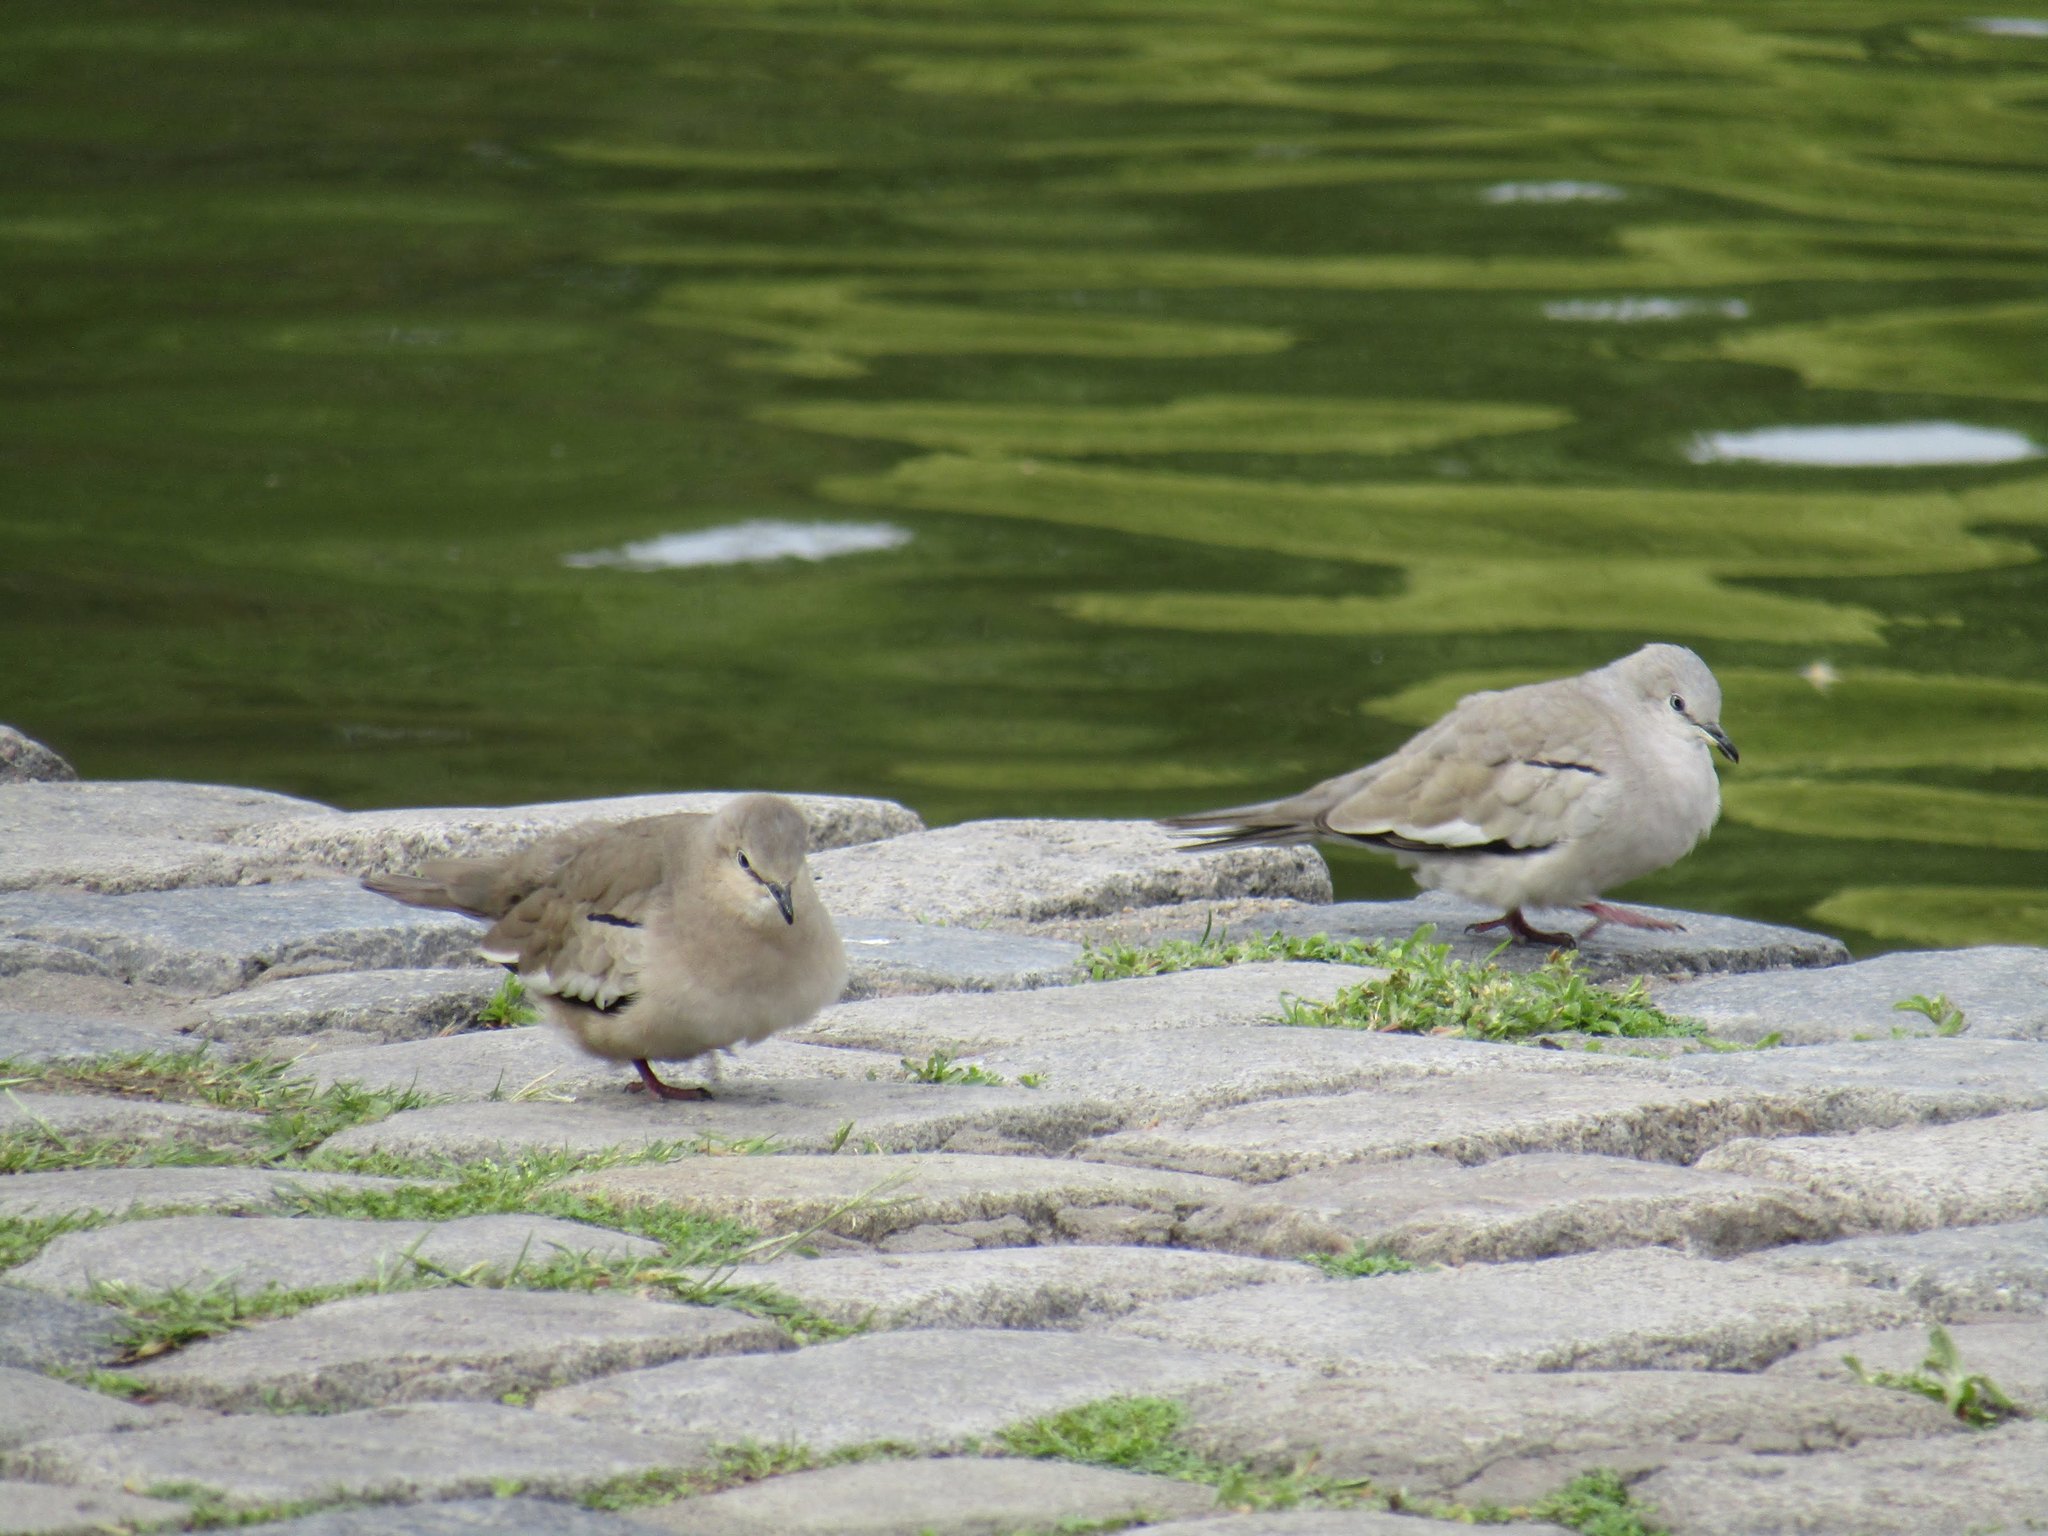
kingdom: Animalia
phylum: Chordata
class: Aves
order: Columbiformes
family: Columbidae
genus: Columbina
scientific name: Columbina picui
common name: Picui ground dove
